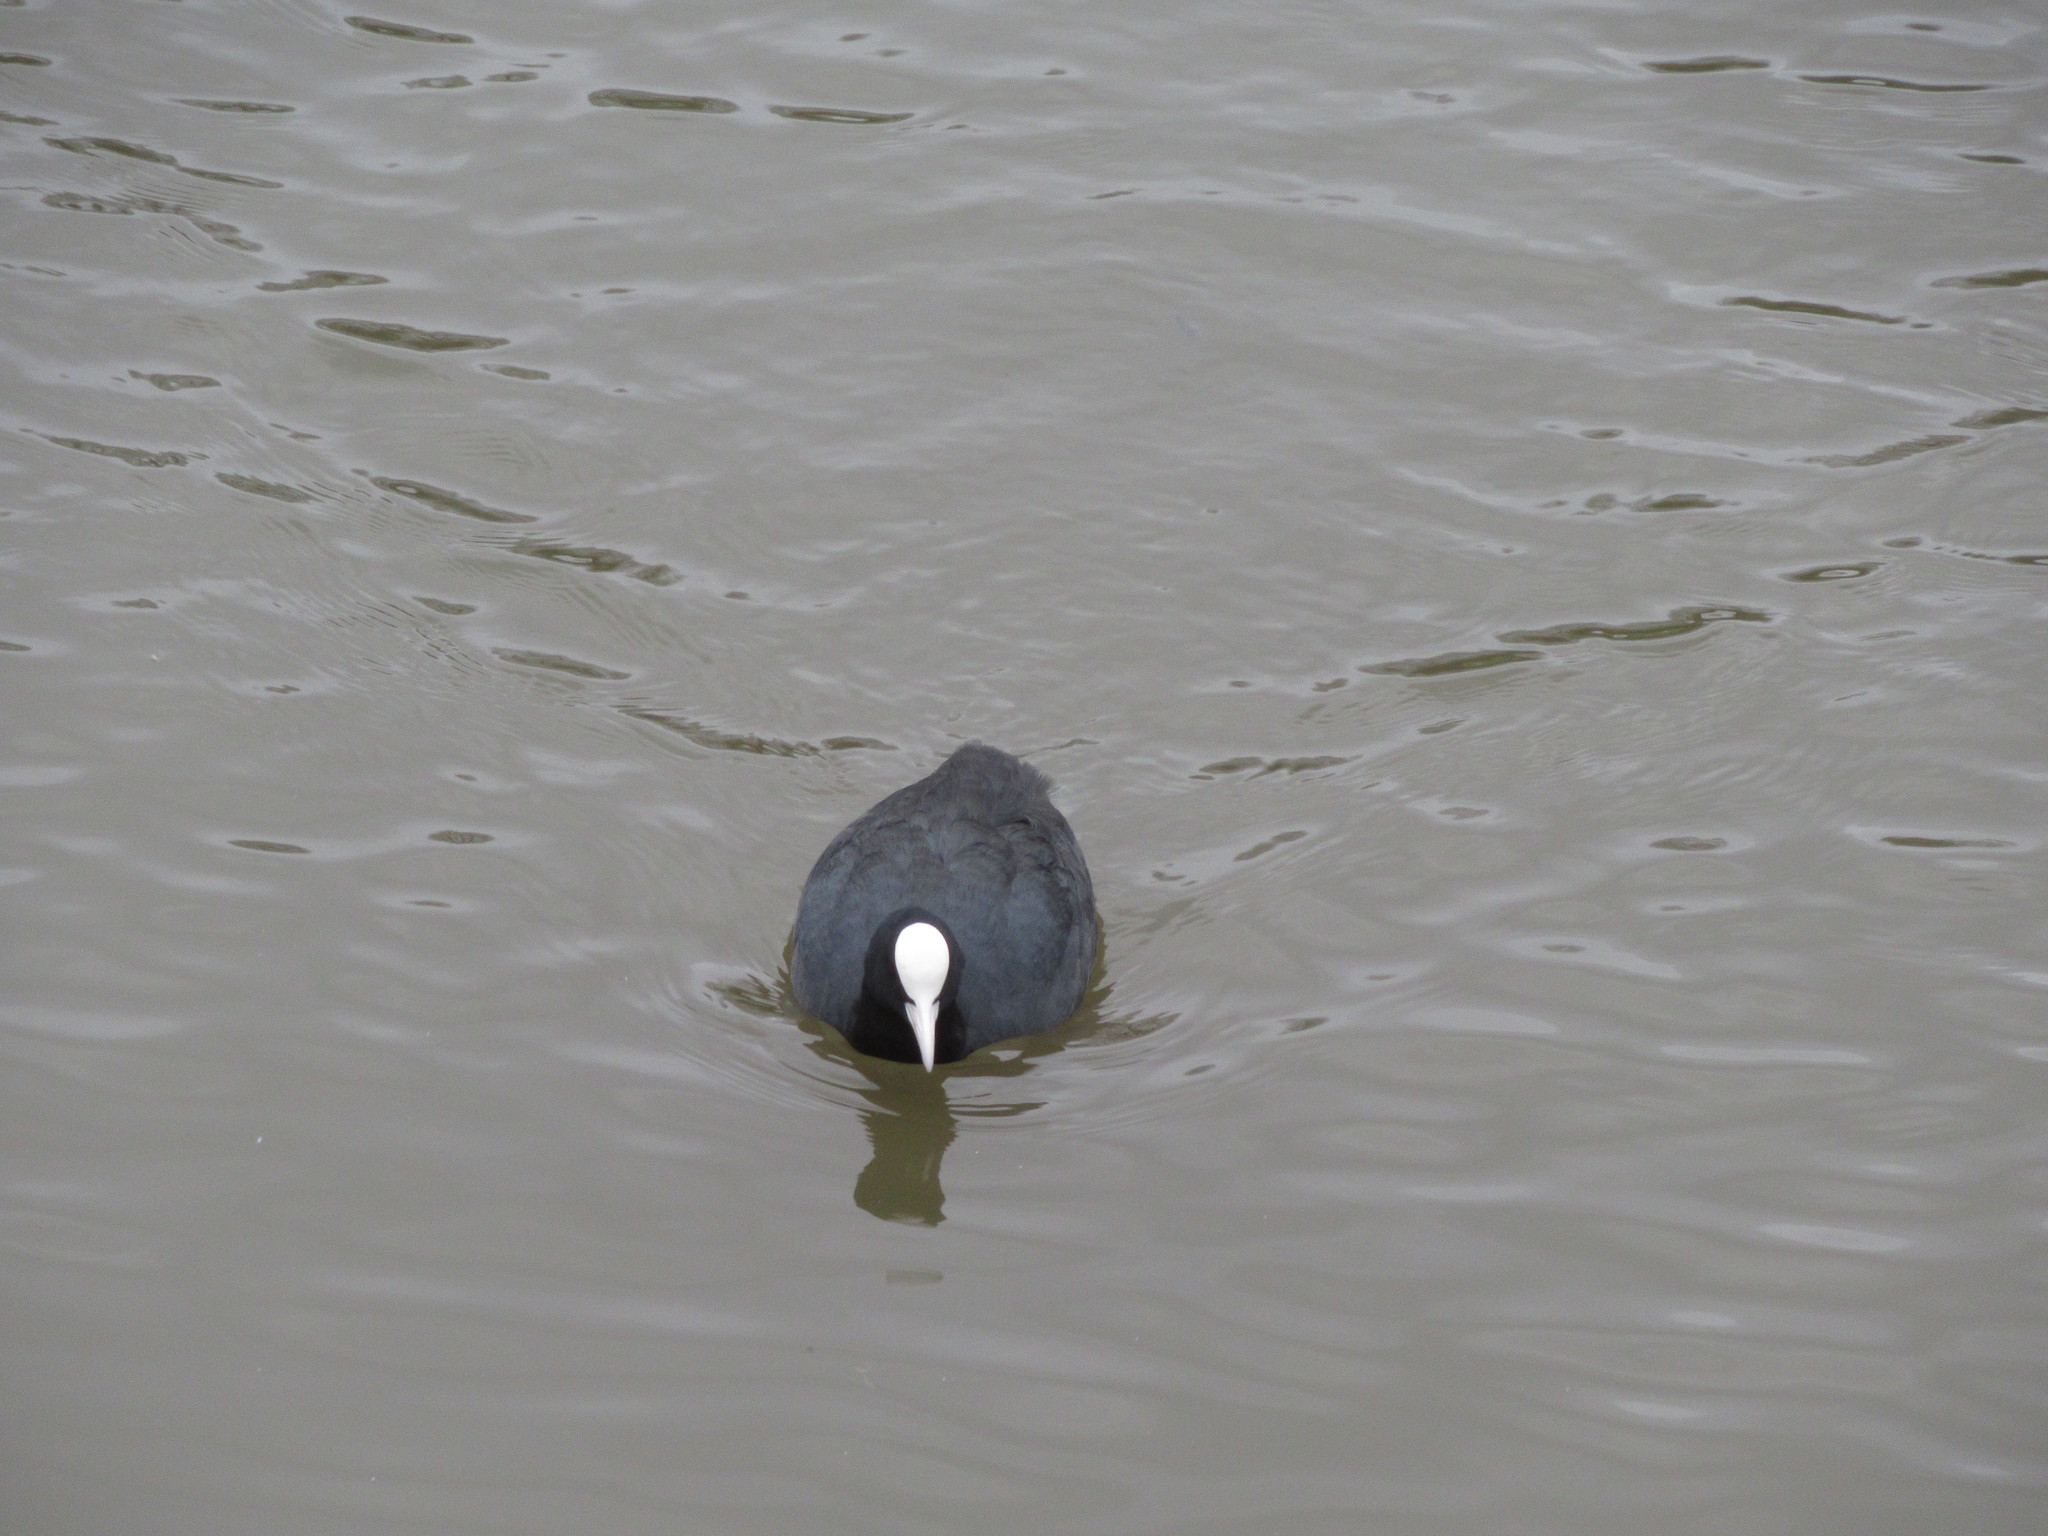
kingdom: Animalia
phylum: Chordata
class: Aves
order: Gruiformes
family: Rallidae
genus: Fulica
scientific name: Fulica atra
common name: Eurasian coot
